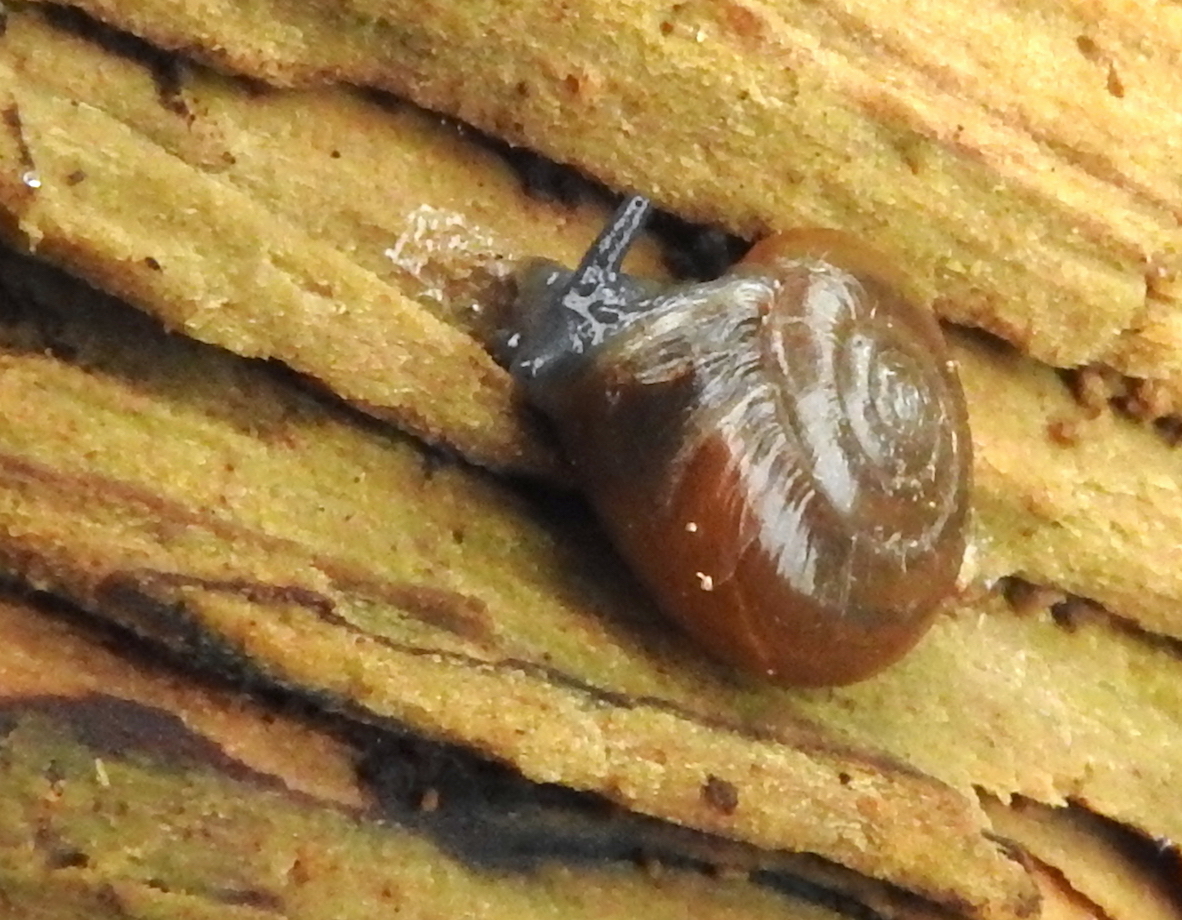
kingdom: Animalia
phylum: Mollusca
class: Gastropoda
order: Stylommatophora
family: Oxychilidae
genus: Oxychilus
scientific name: Oxychilus draparnaudi
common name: Draparnaud's glass snail
